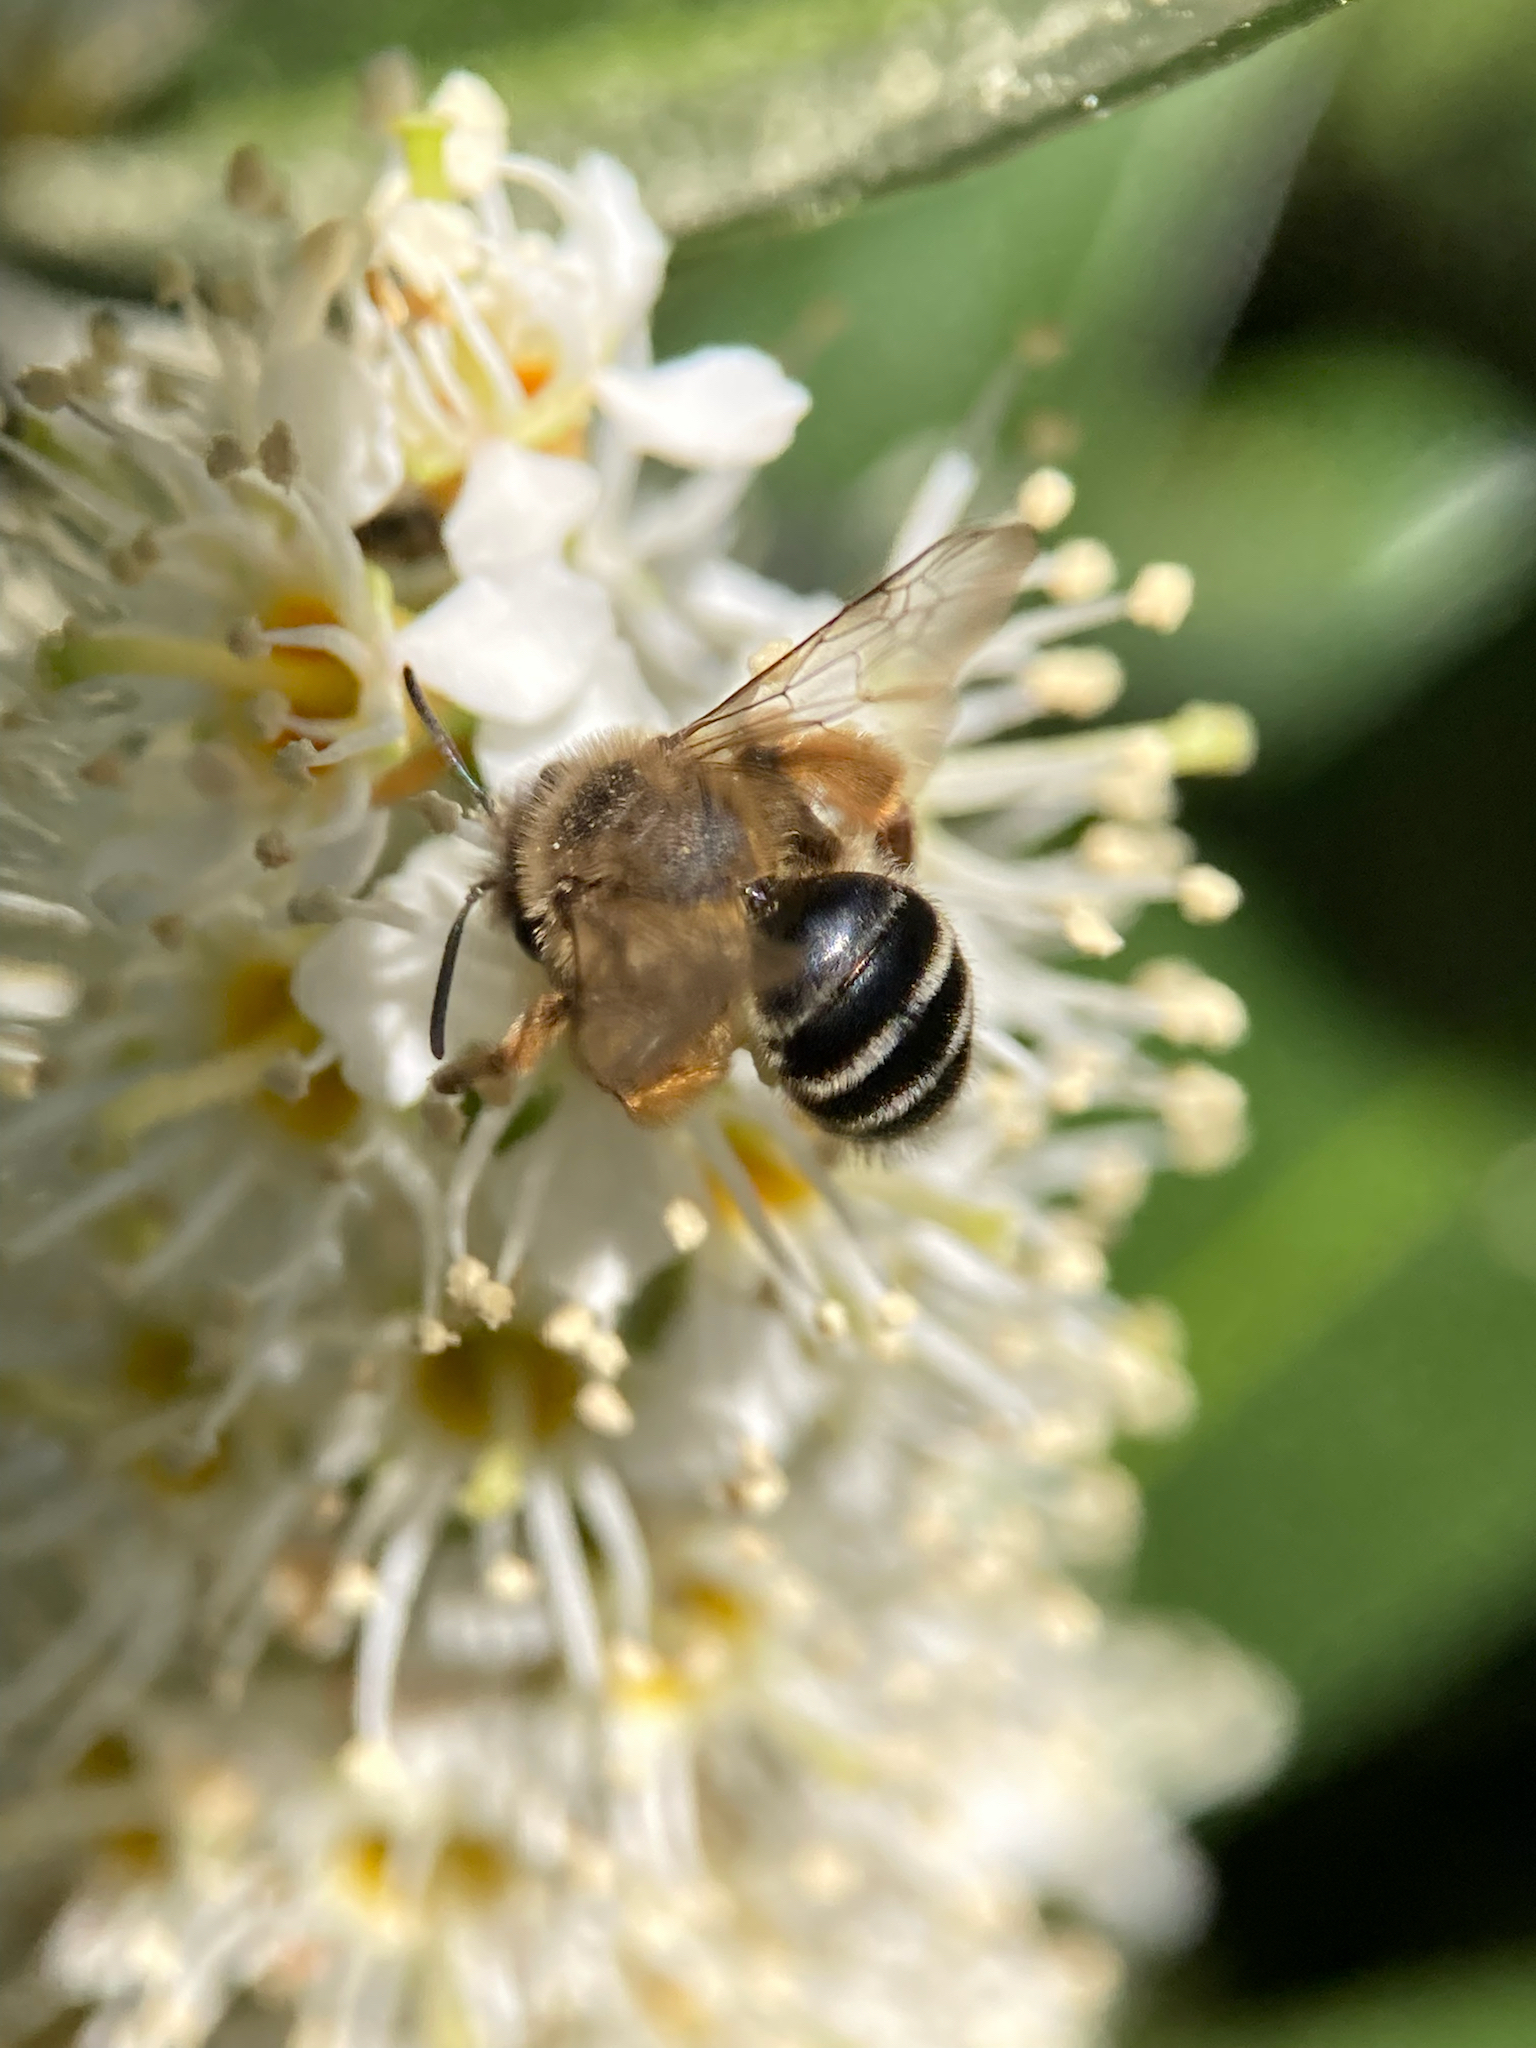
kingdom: Animalia
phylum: Arthropoda
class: Insecta
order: Hymenoptera
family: Andrenidae
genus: Andrena
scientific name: Andrena flavipes
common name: Yellow-legged mining bee
